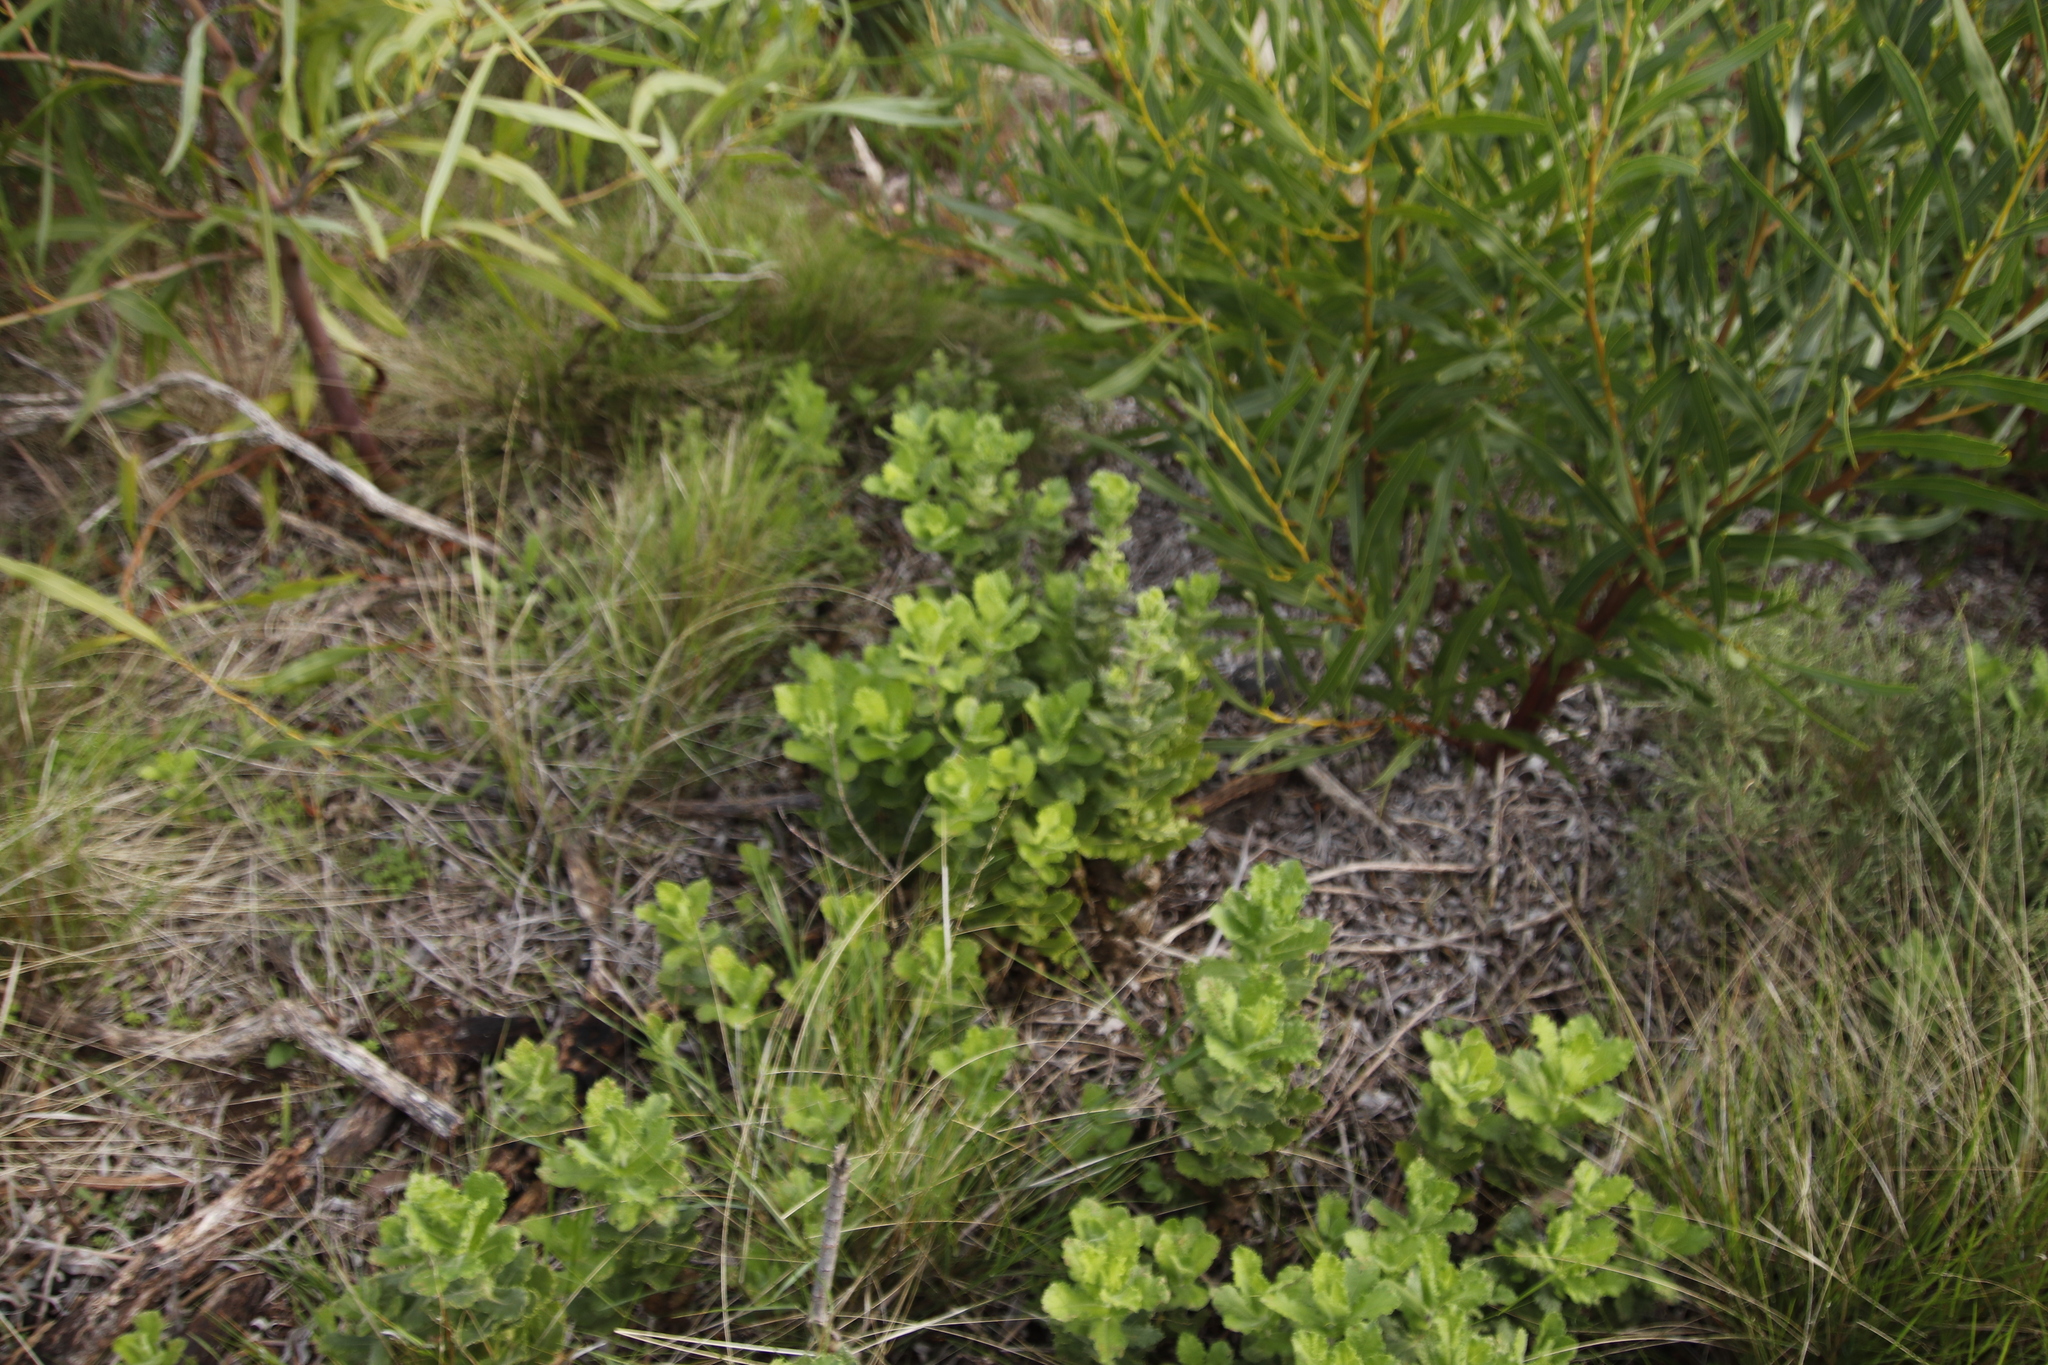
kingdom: Plantae
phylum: Tracheophyta
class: Magnoliopsida
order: Lamiales
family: Scrophulariaceae
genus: Oftia
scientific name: Oftia africana
